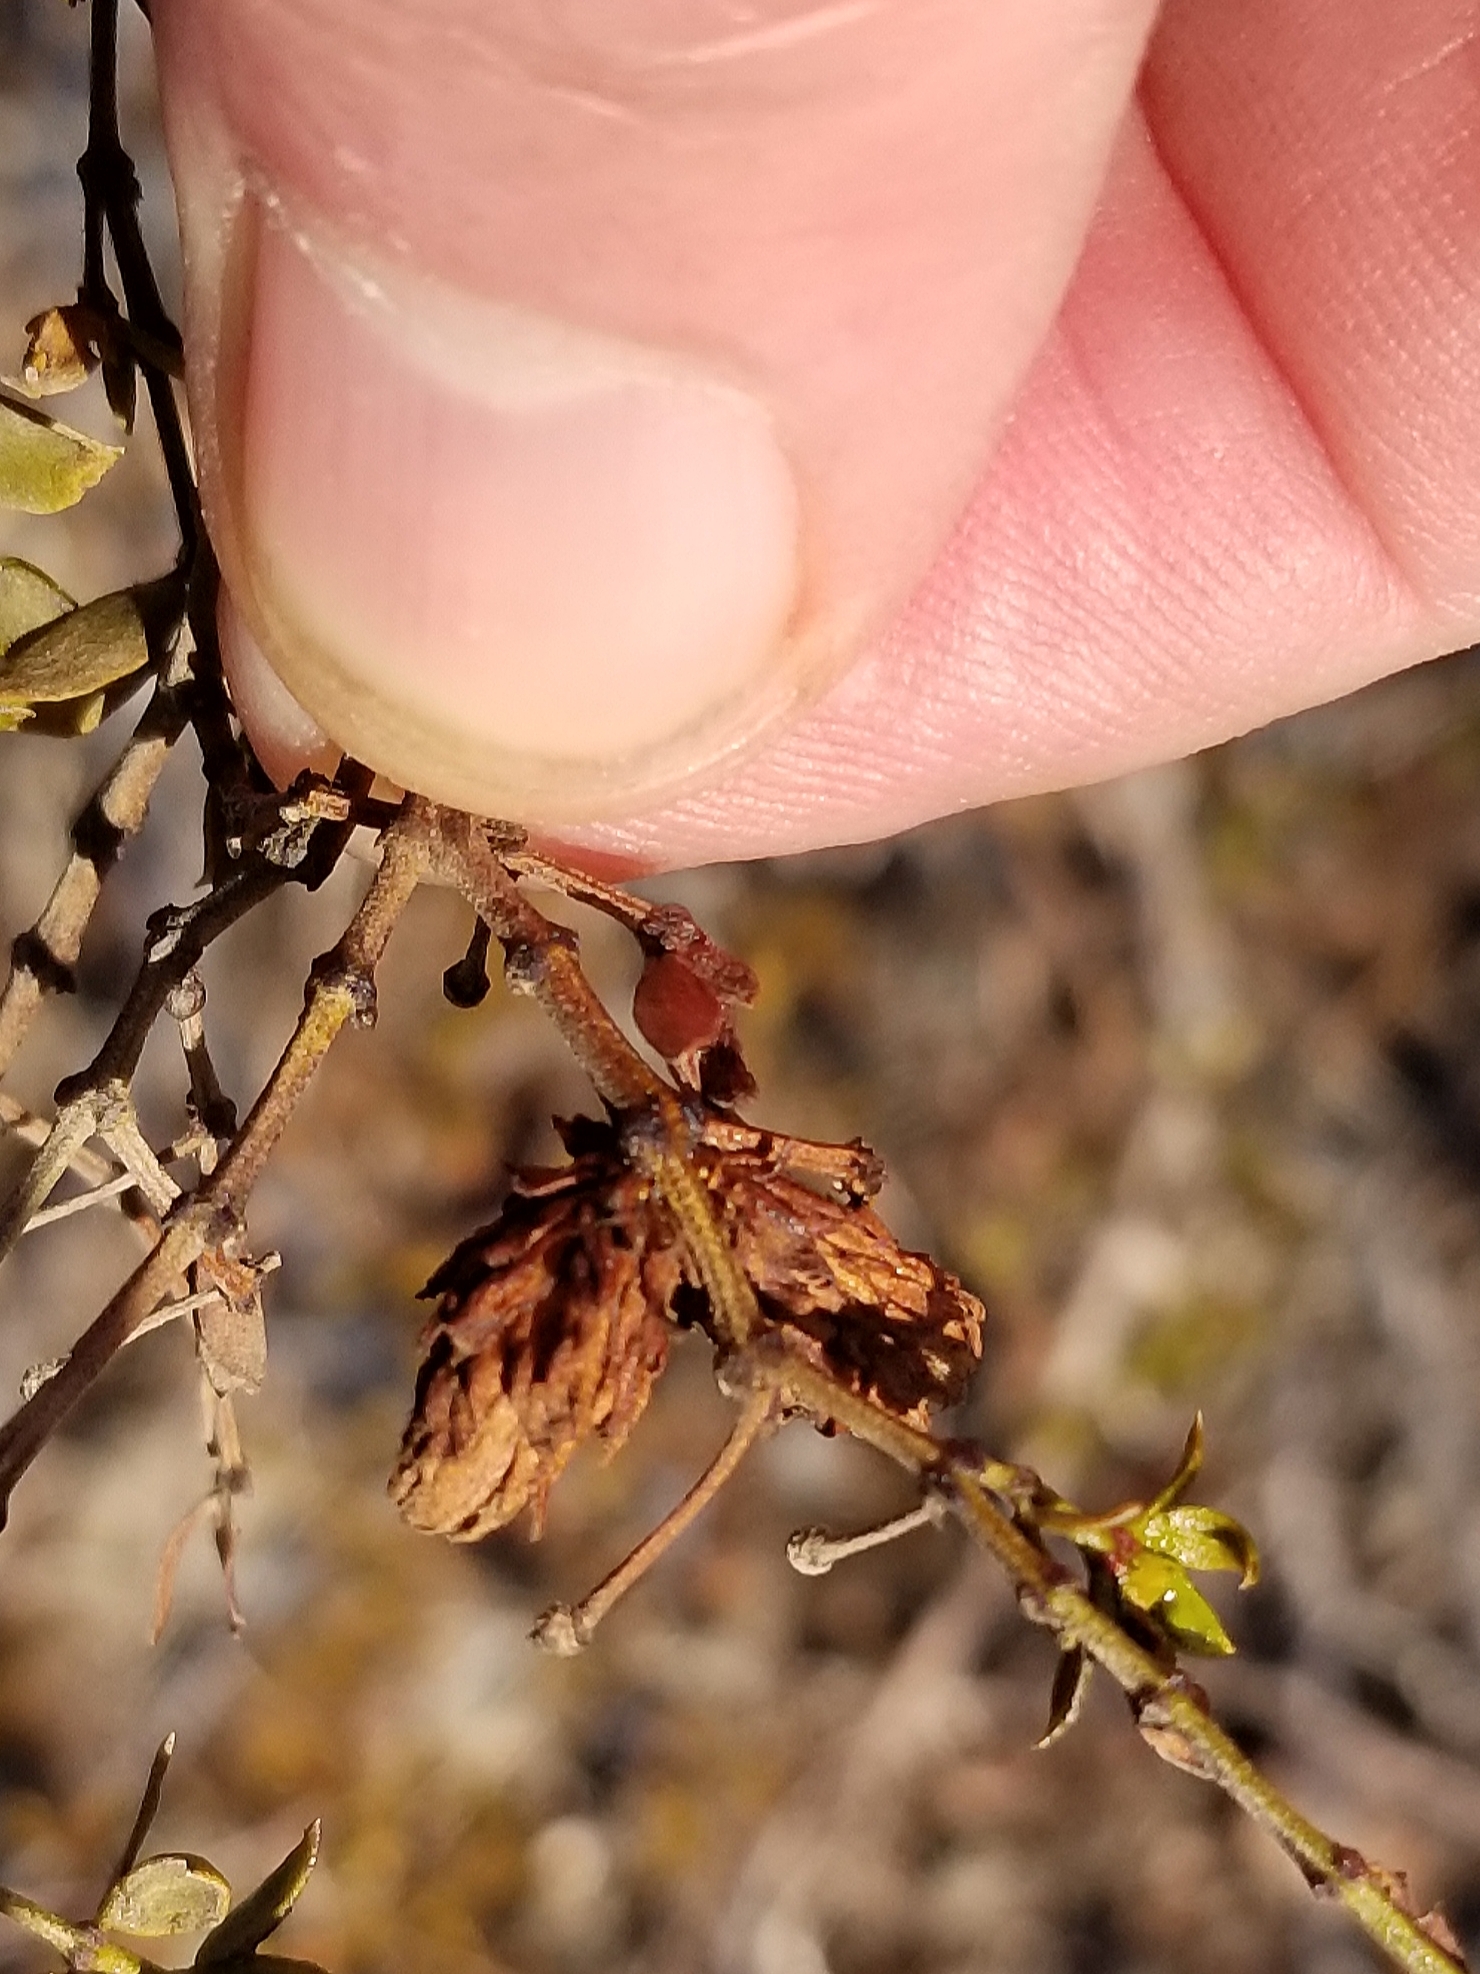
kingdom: Animalia
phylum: Arthropoda
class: Insecta
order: Diptera
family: Cecidomyiidae
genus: Asphondylia
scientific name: Asphondylia rosetta
